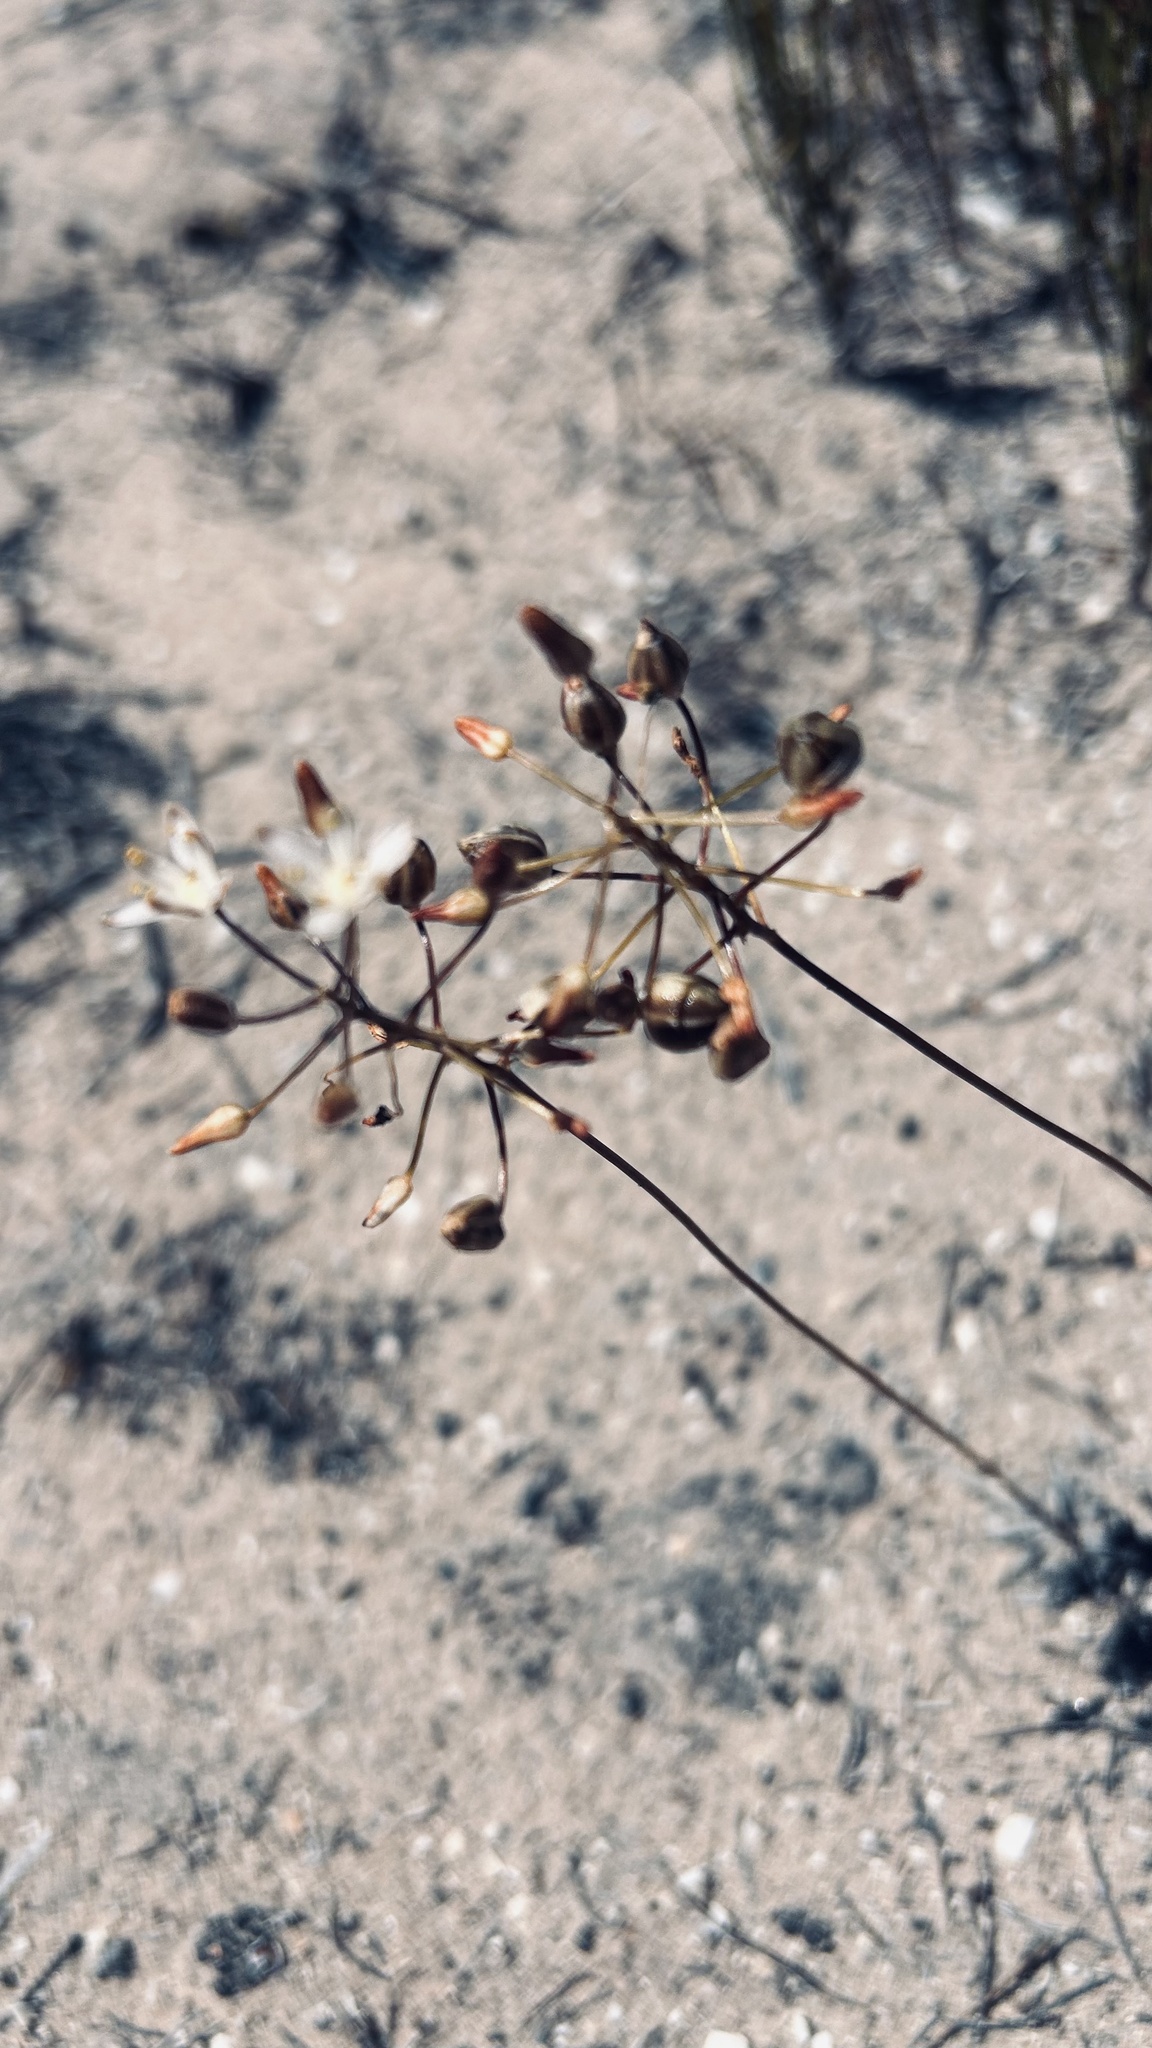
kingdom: Plantae
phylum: Tracheophyta
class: Liliopsida
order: Asparagales
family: Asparagaceae
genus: Fusifilum
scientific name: Fusifilum physodes
